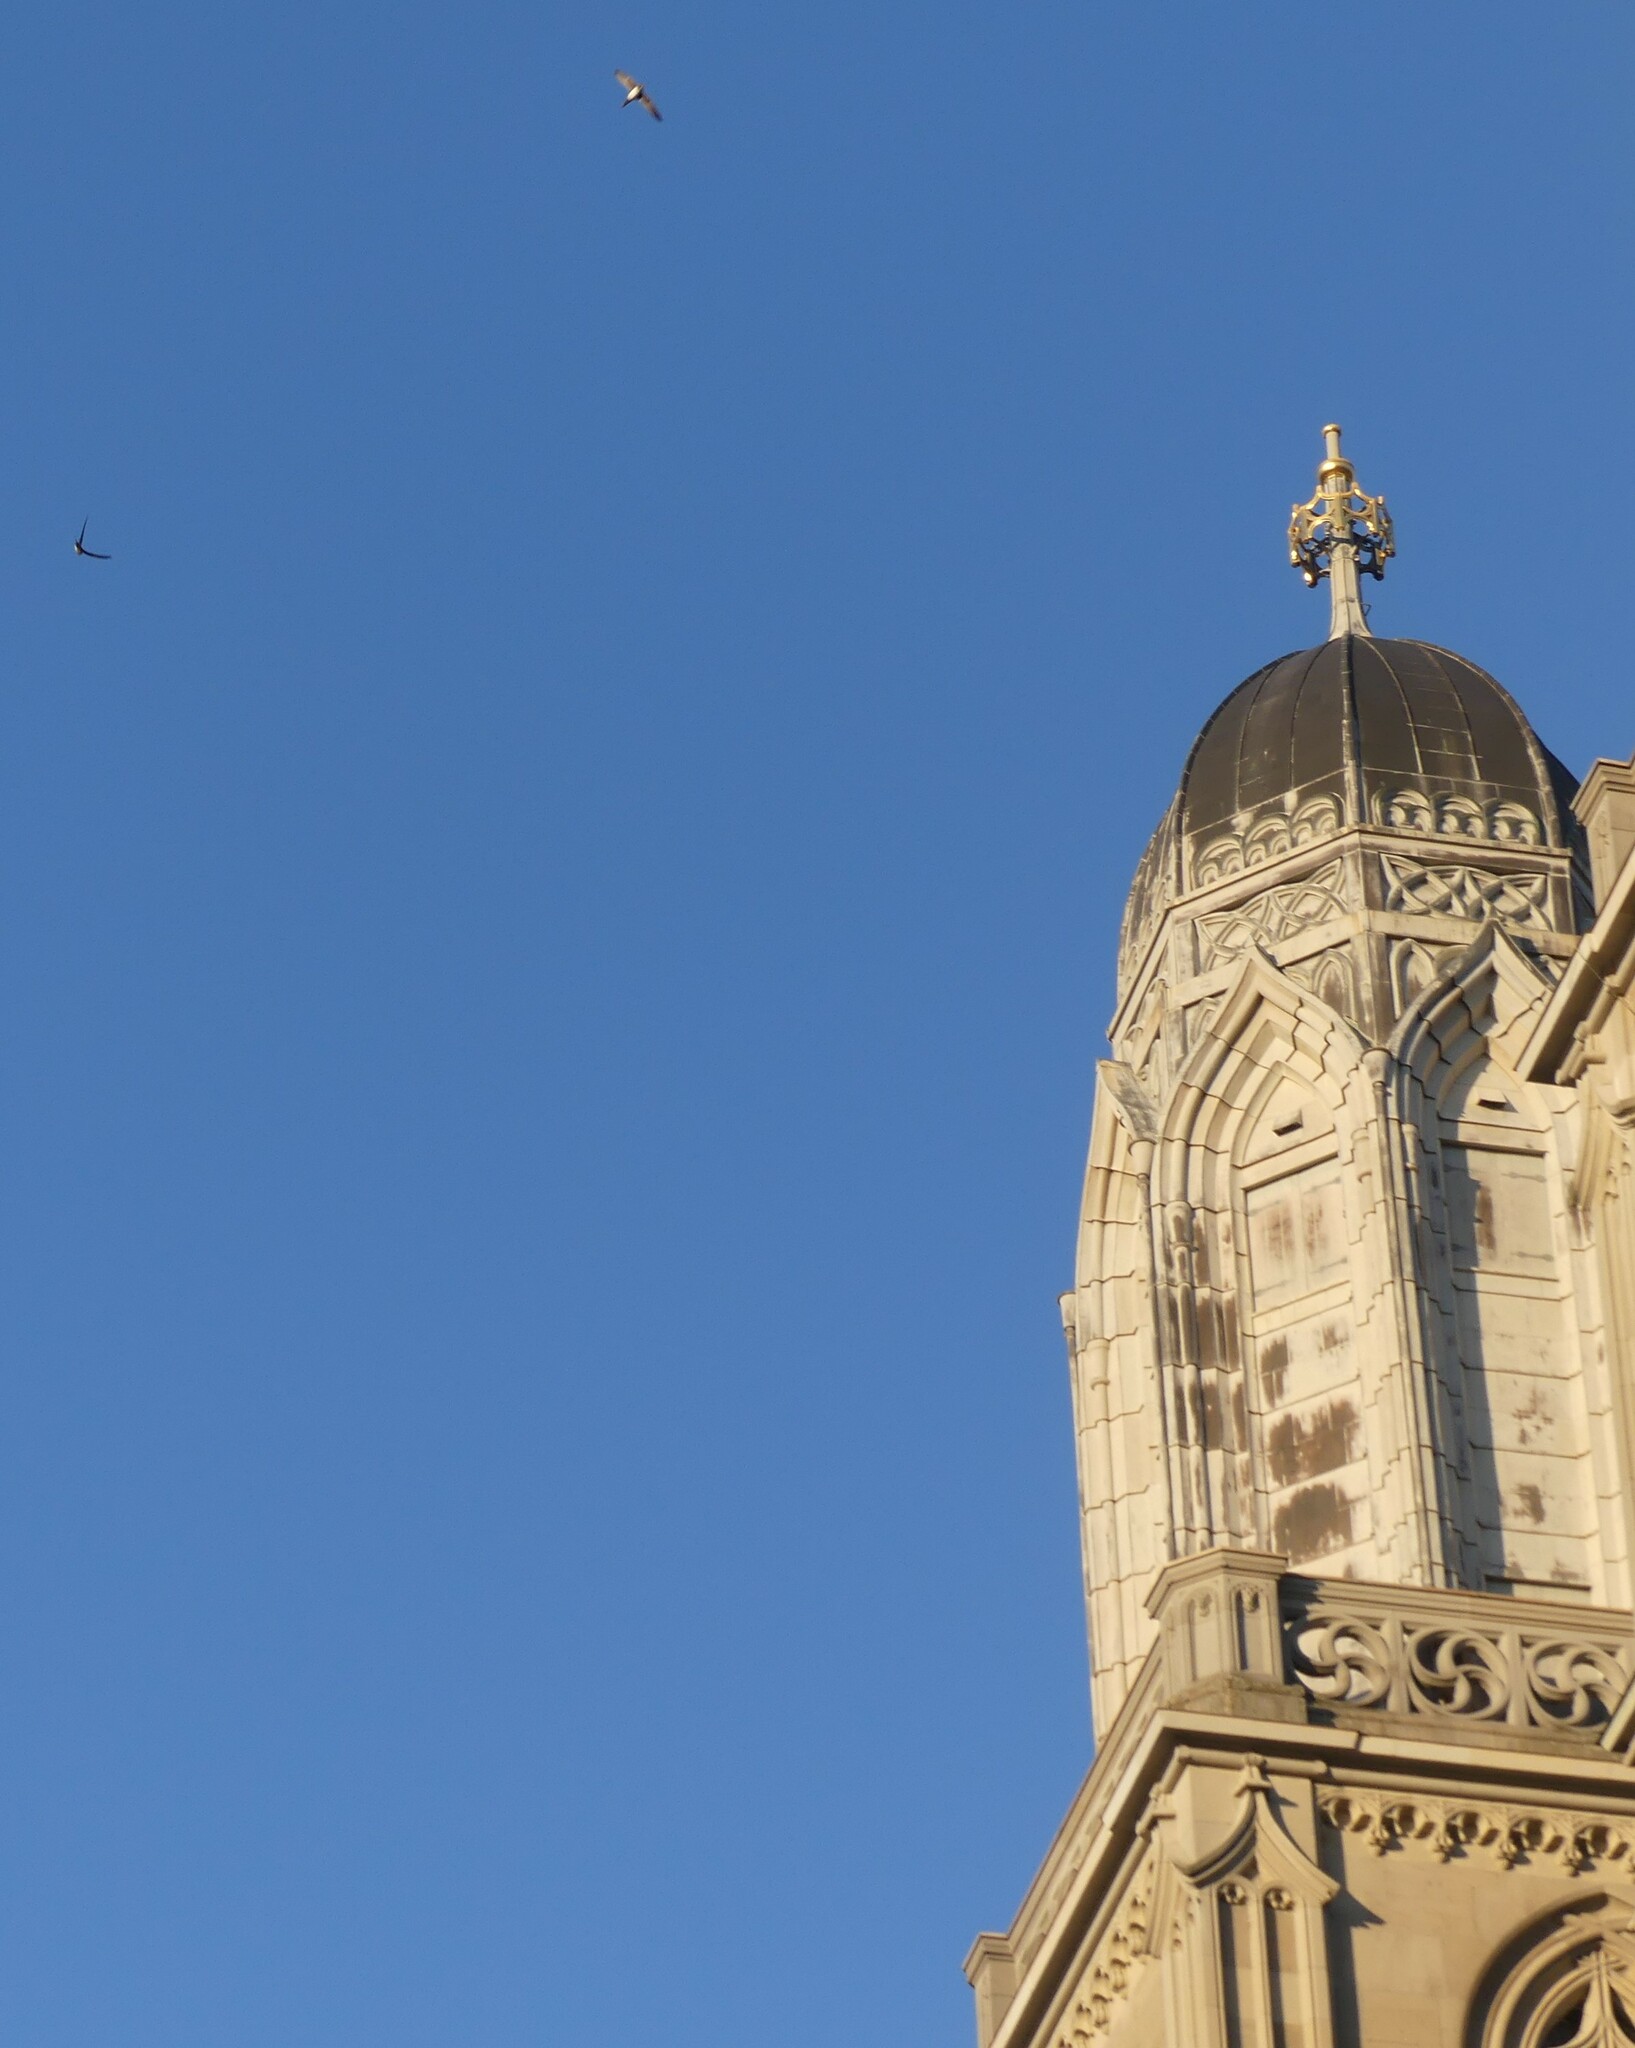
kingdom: Animalia
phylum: Chordata
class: Aves
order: Apodiformes
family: Apodidae
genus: Tachymarptis
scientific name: Tachymarptis melba
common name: Alpine swift
